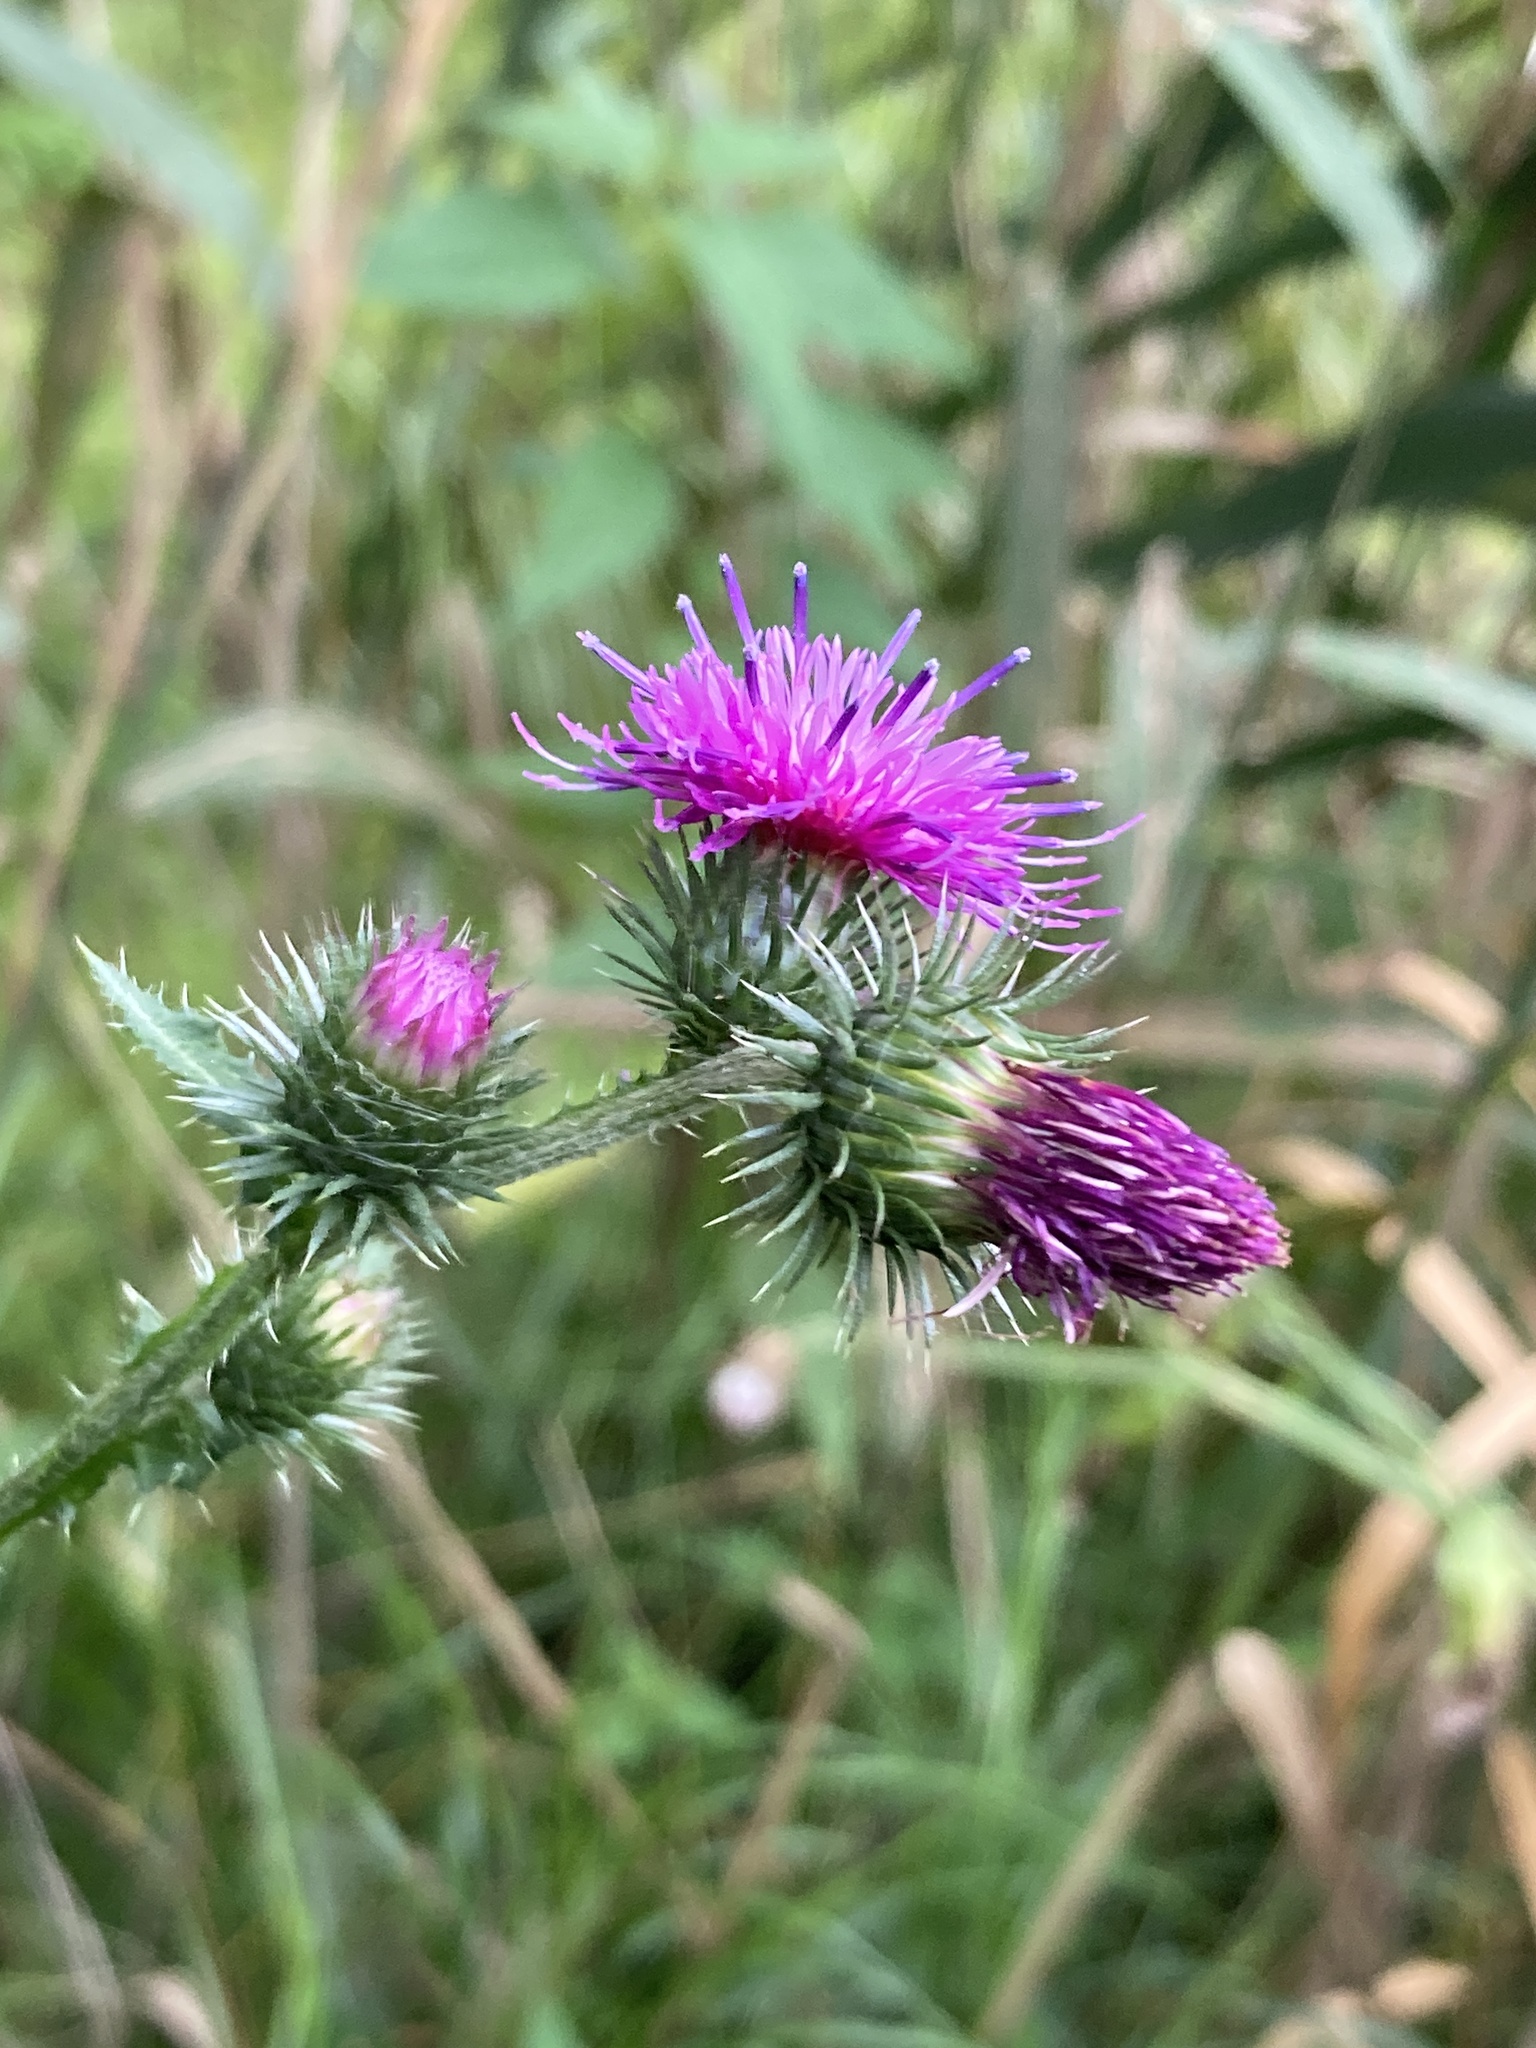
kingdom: Plantae
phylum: Tracheophyta
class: Magnoliopsida
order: Asterales
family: Asteraceae
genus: Carduus
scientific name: Carduus crispus
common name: Welted thistle
